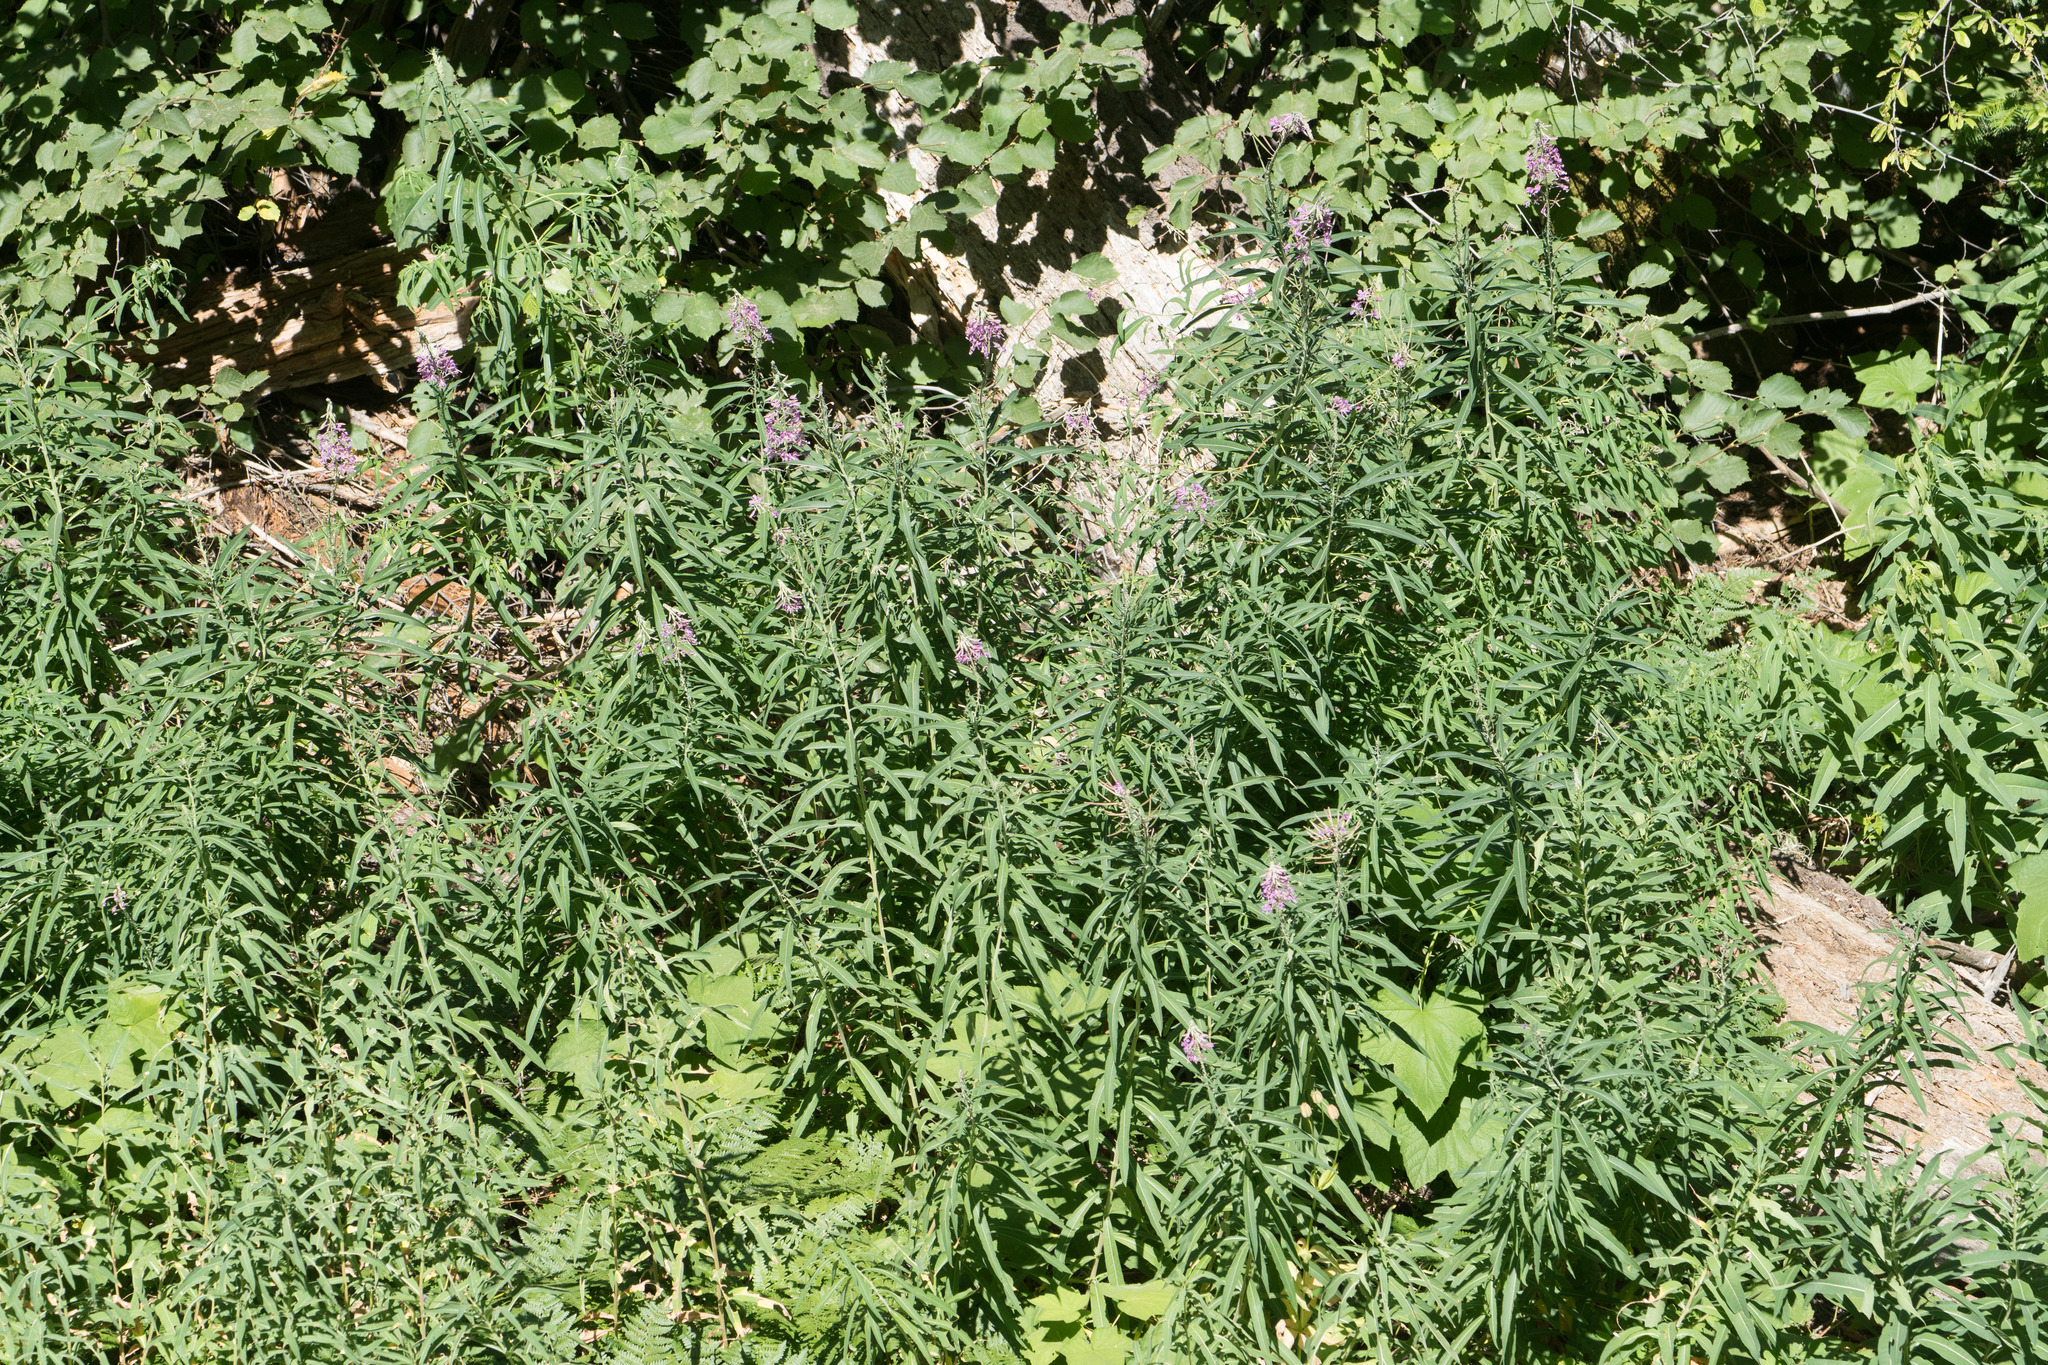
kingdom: Plantae
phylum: Tracheophyta
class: Magnoliopsida
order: Myrtales
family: Onagraceae
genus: Chamaenerion
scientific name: Chamaenerion angustifolium
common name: Fireweed
